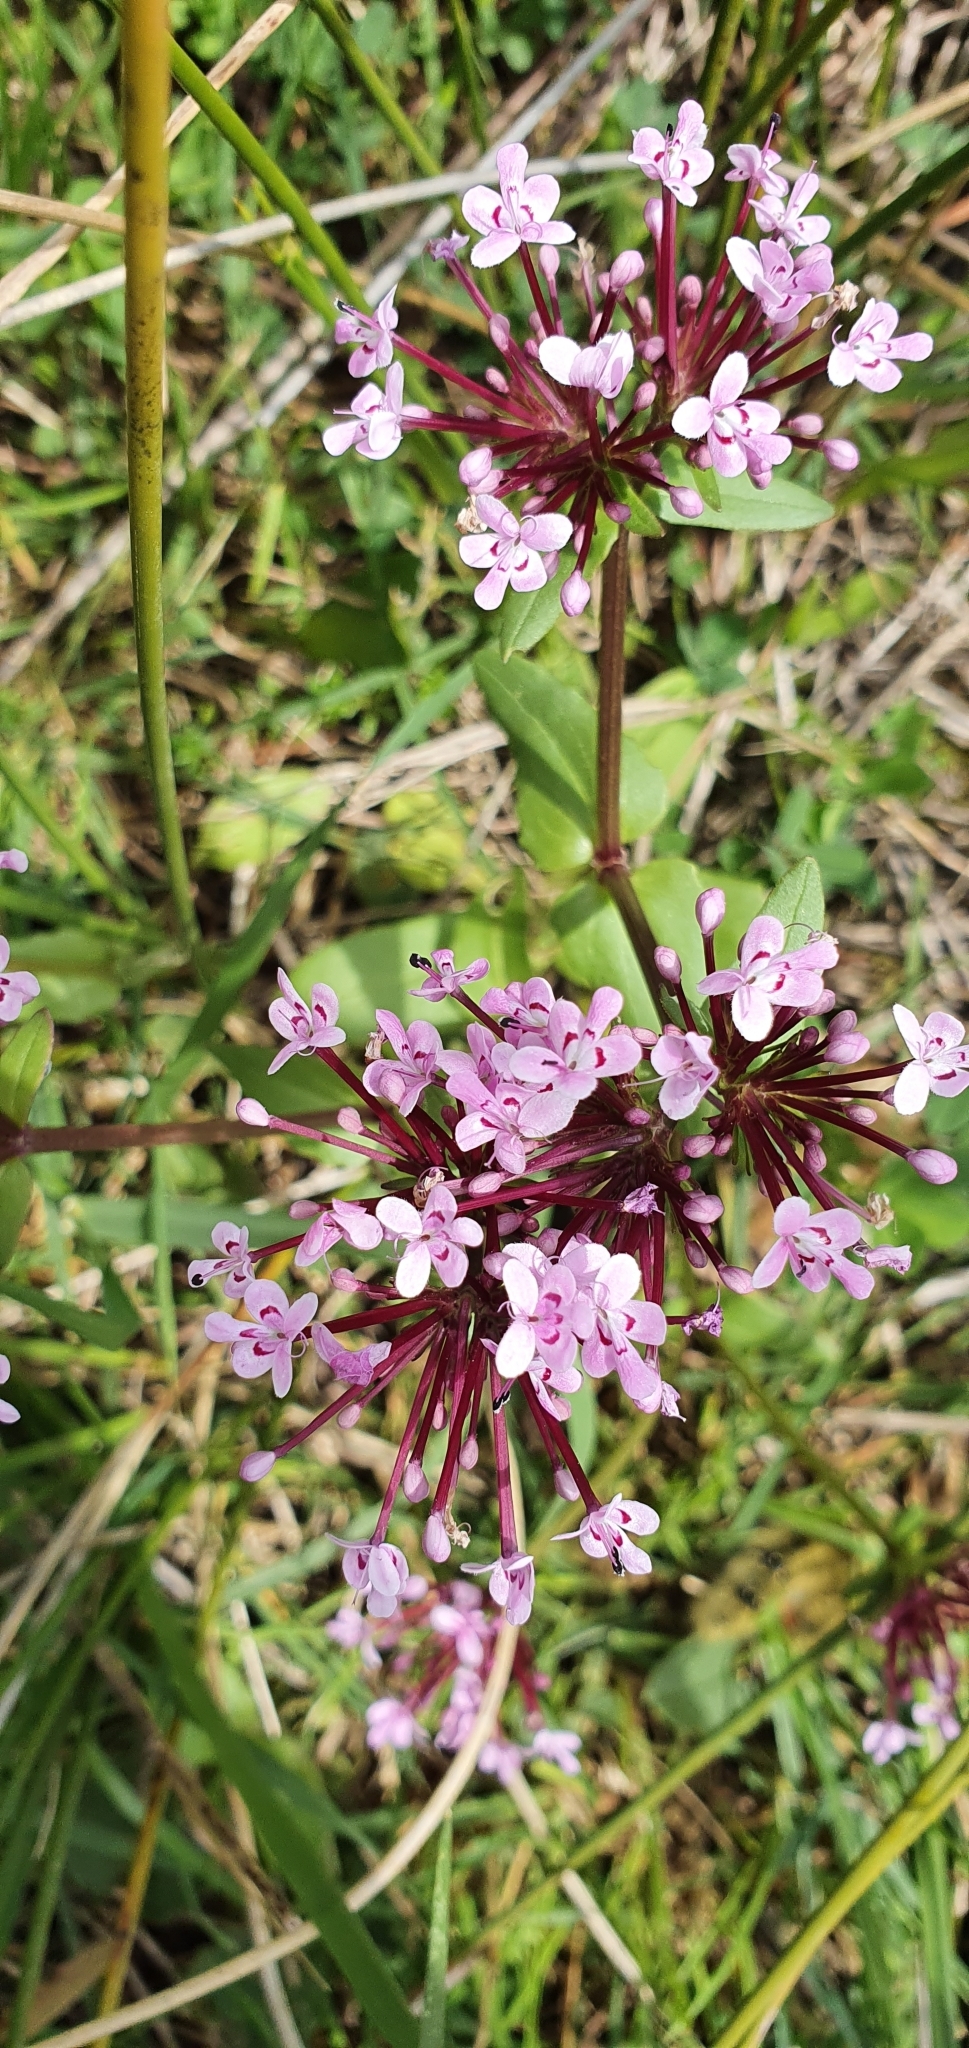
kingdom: Plantae
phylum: Tracheophyta
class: Magnoliopsida
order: Dipsacales
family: Caprifoliaceae
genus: Fedia
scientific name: Fedia graciliflora
